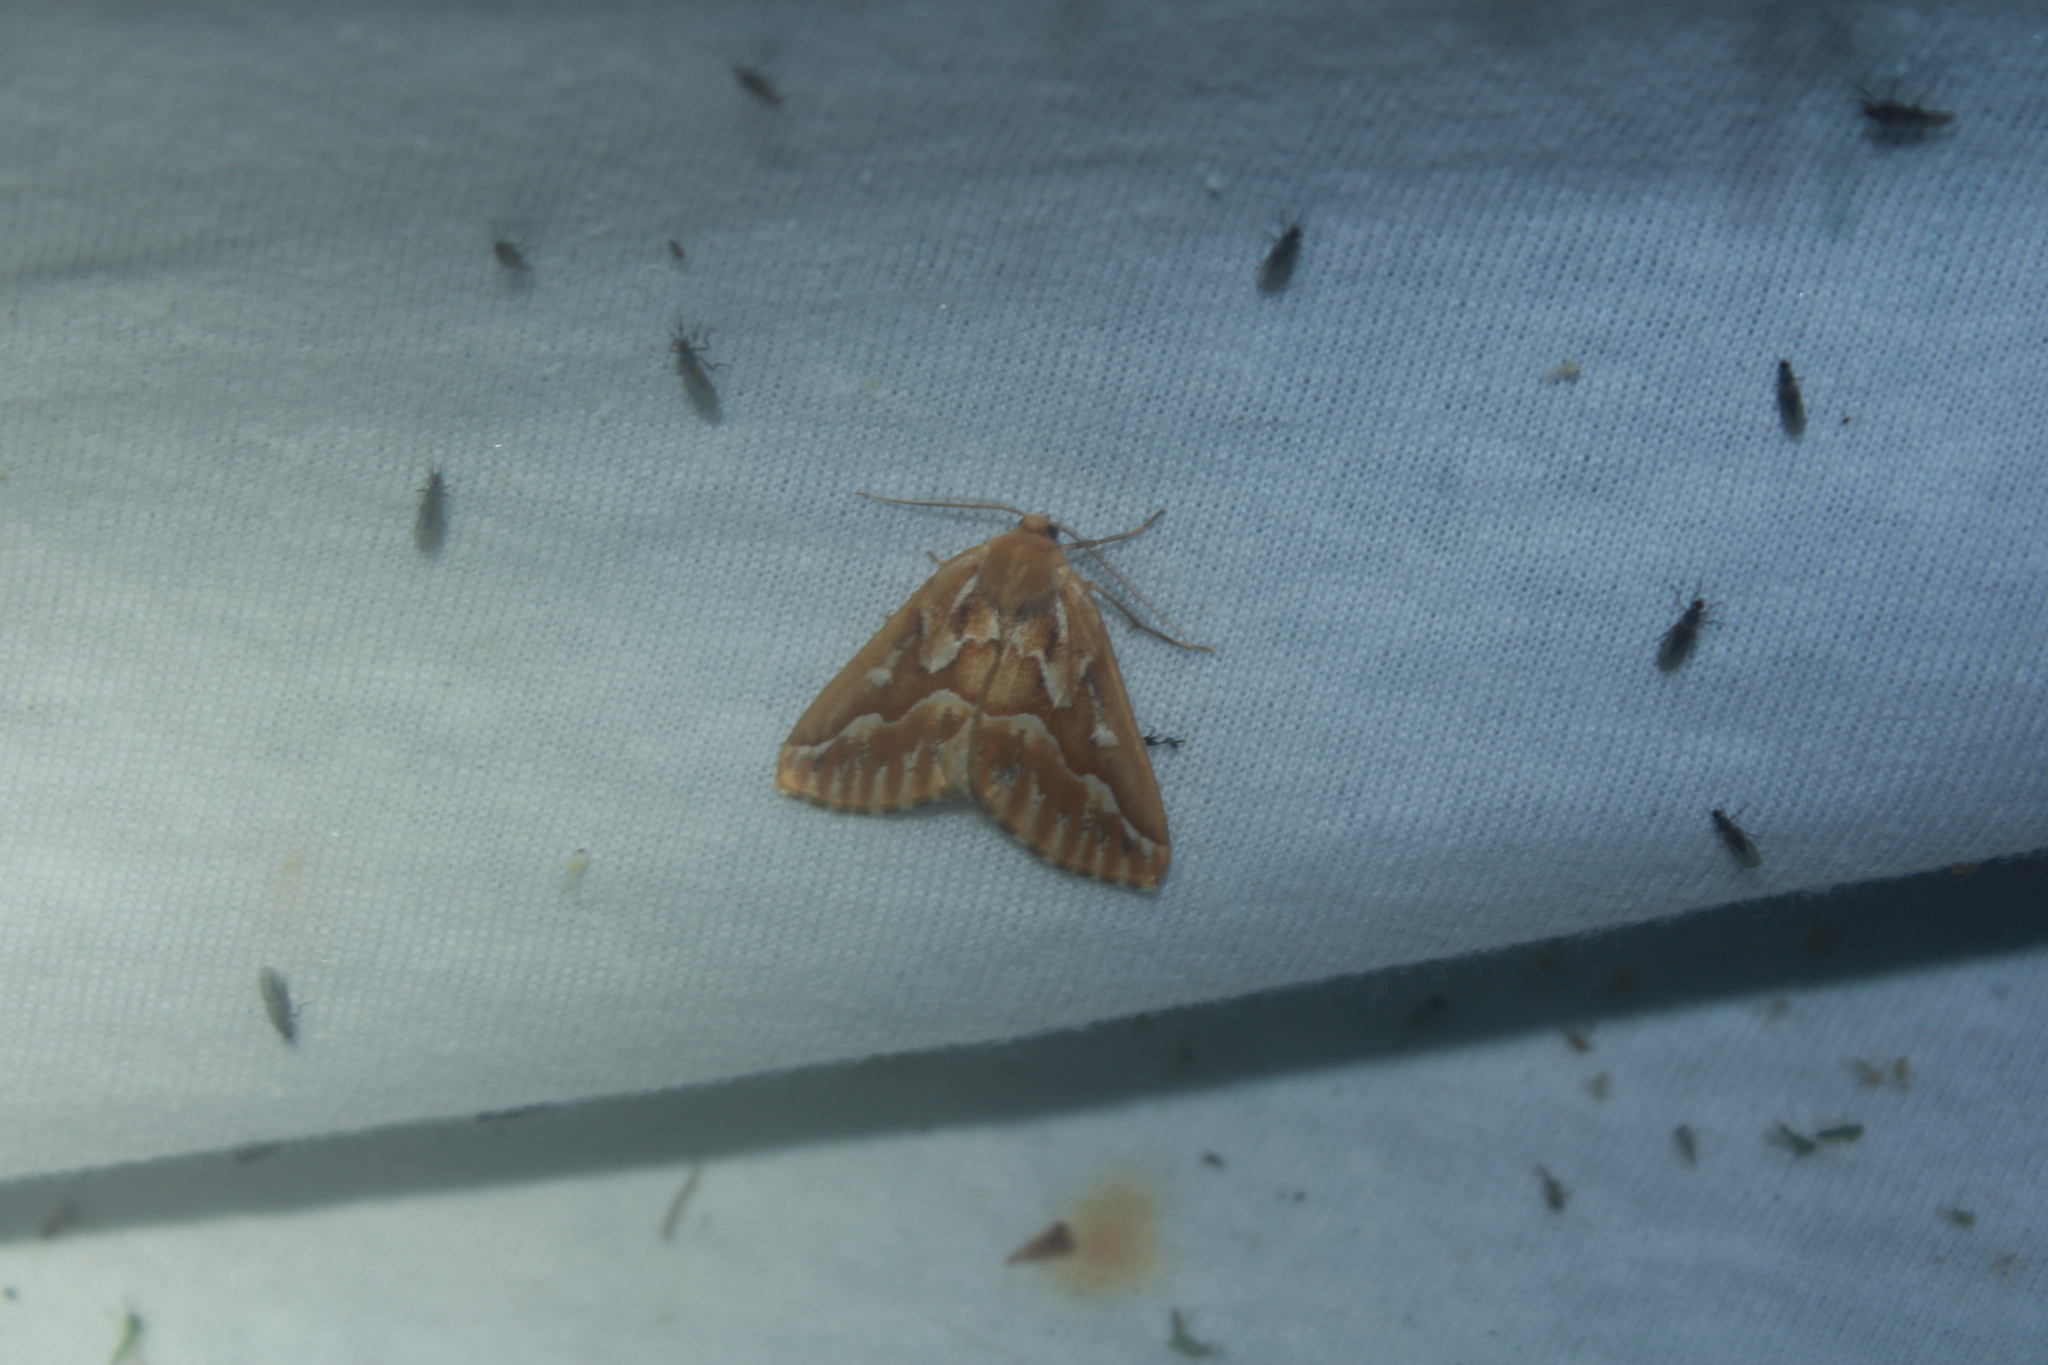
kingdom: Animalia
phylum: Arthropoda
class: Insecta
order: Lepidoptera
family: Geometridae
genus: Caripeta
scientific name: Caripeta piniata
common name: Northern pine looper moth
